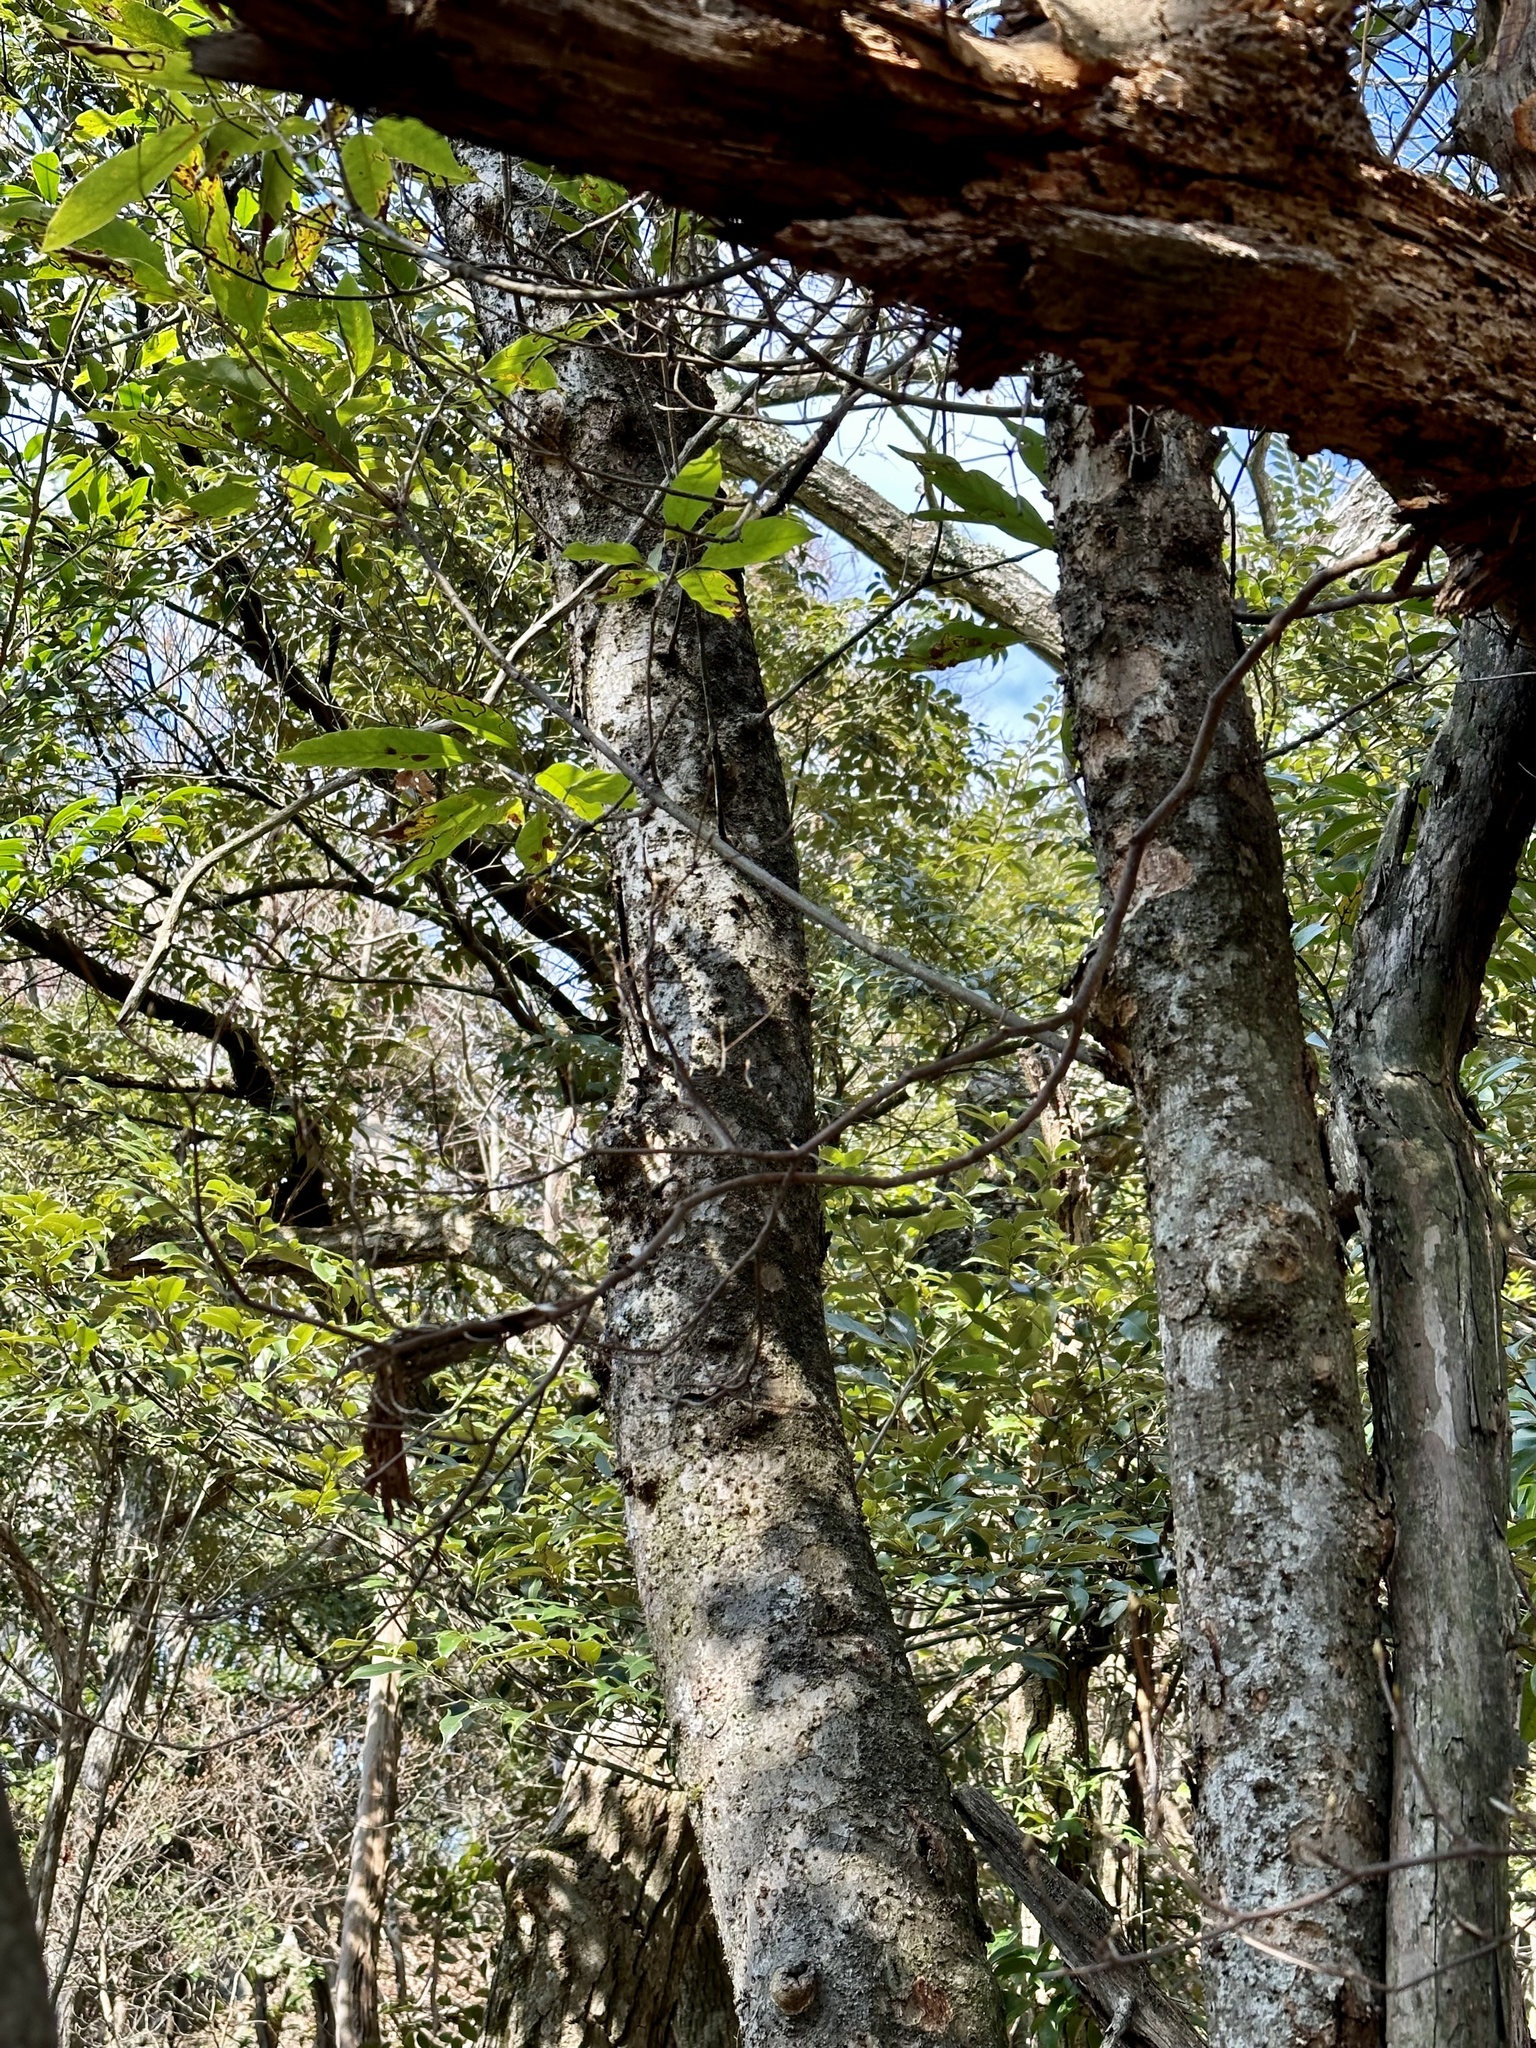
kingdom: Plantae
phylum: Tracheophyta
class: Magnoliopsida
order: Fagales
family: Fagaceae
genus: Quercus
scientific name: Quercus acuta
